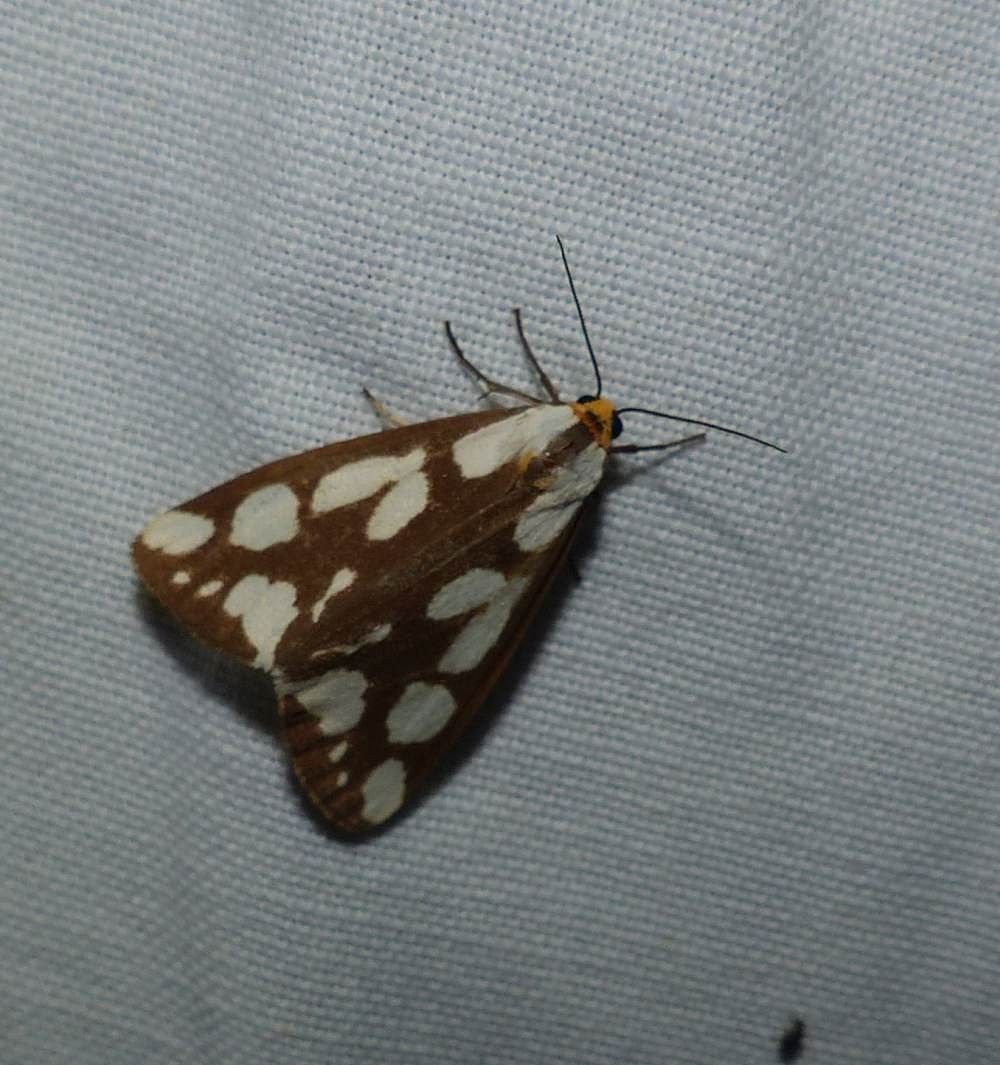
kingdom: Animalia
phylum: Arthropoda
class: Insecta
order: Lepidoptera
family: Erebidae
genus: Haploa
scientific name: Haploa confusa
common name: Confused haploa moth
